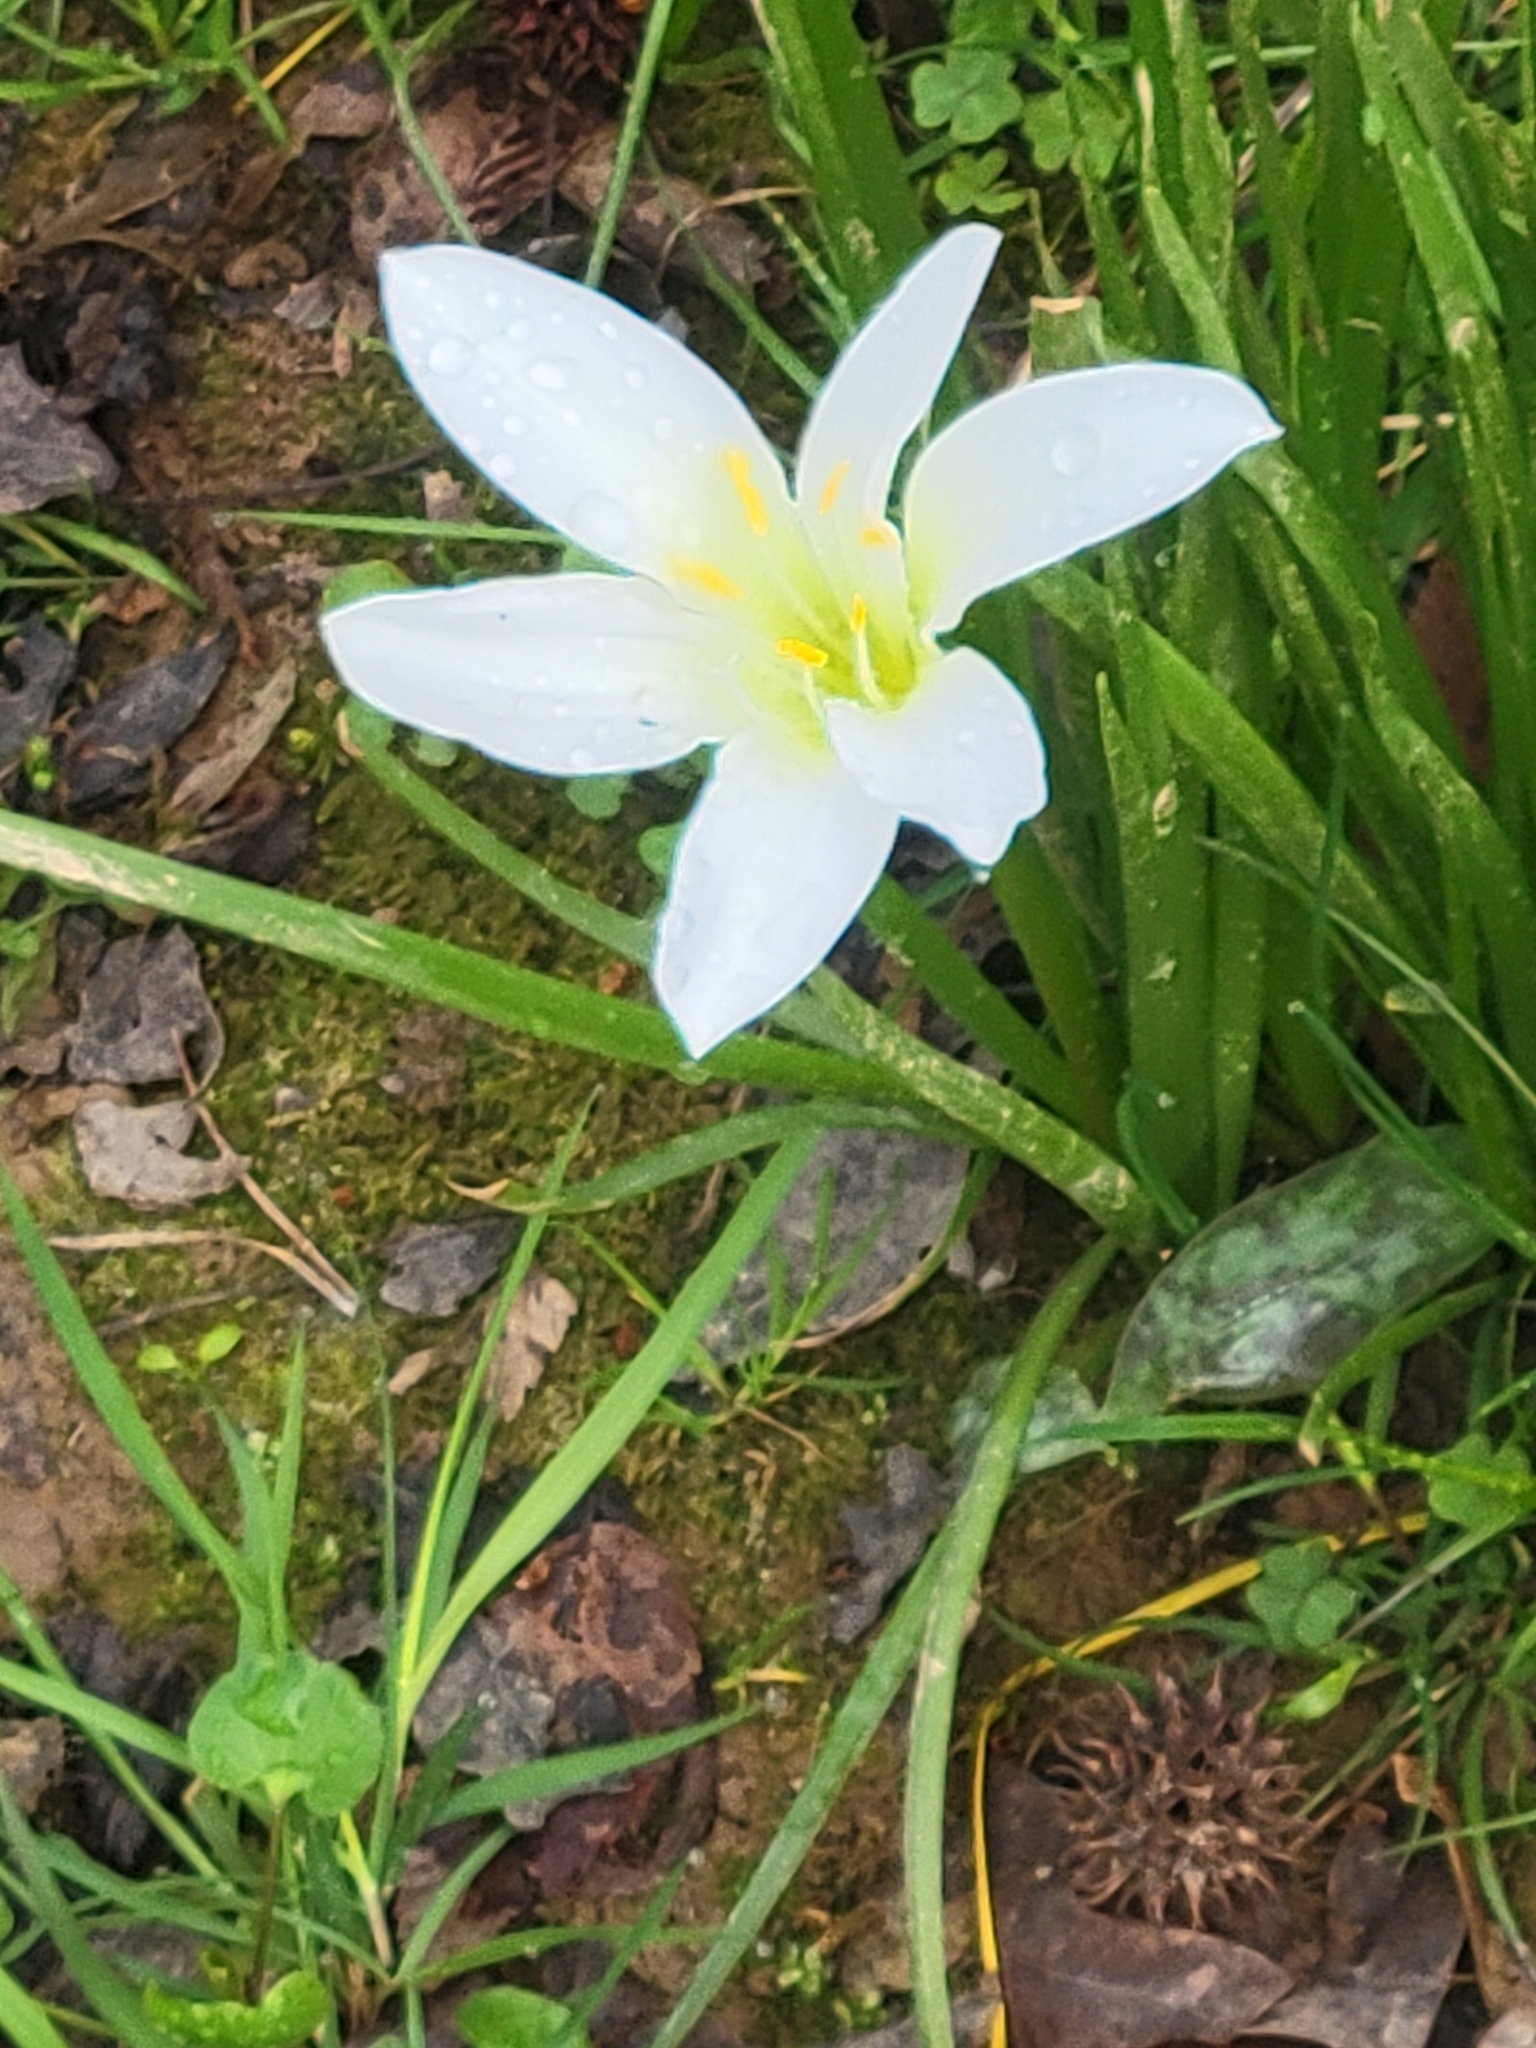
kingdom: Plantae
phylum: Tracheophyta
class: Liliopsida
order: Asparagales
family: Amaryllidaceae
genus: Zephyranthes
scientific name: Zephyranthes atamasco
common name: Atamasco lily
